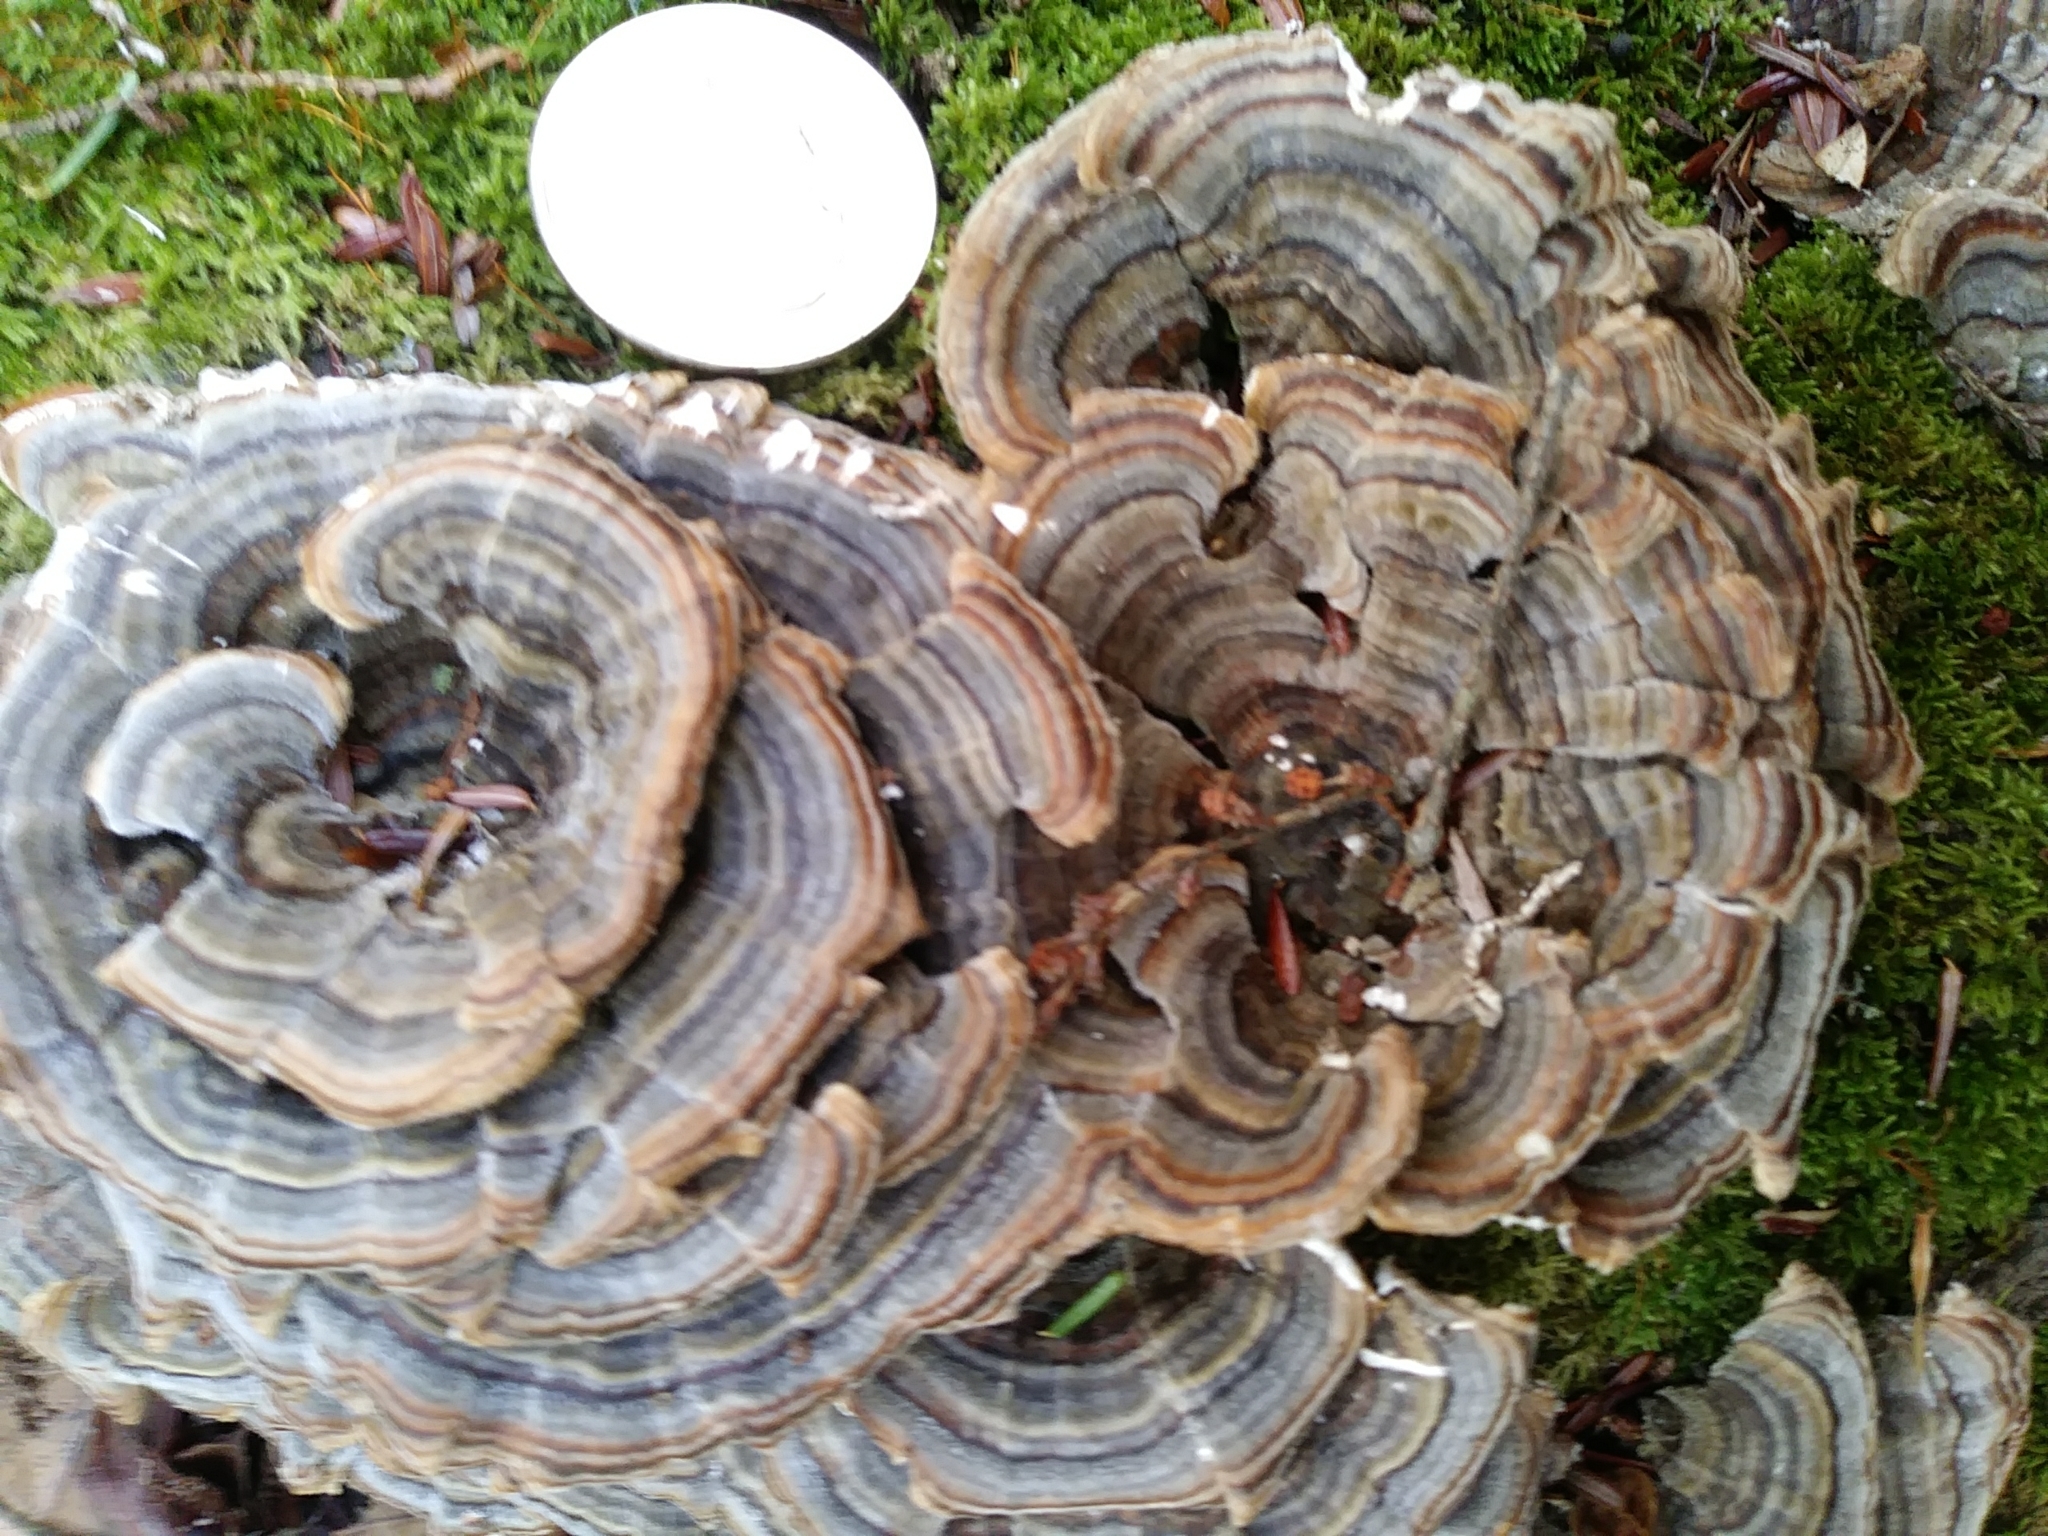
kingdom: Fungi
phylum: Basidiomycota
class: Agaricomycetes
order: Polyporales
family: Polyporaceae
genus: Trametes
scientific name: Trametes versicolor
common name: Turkeytail
